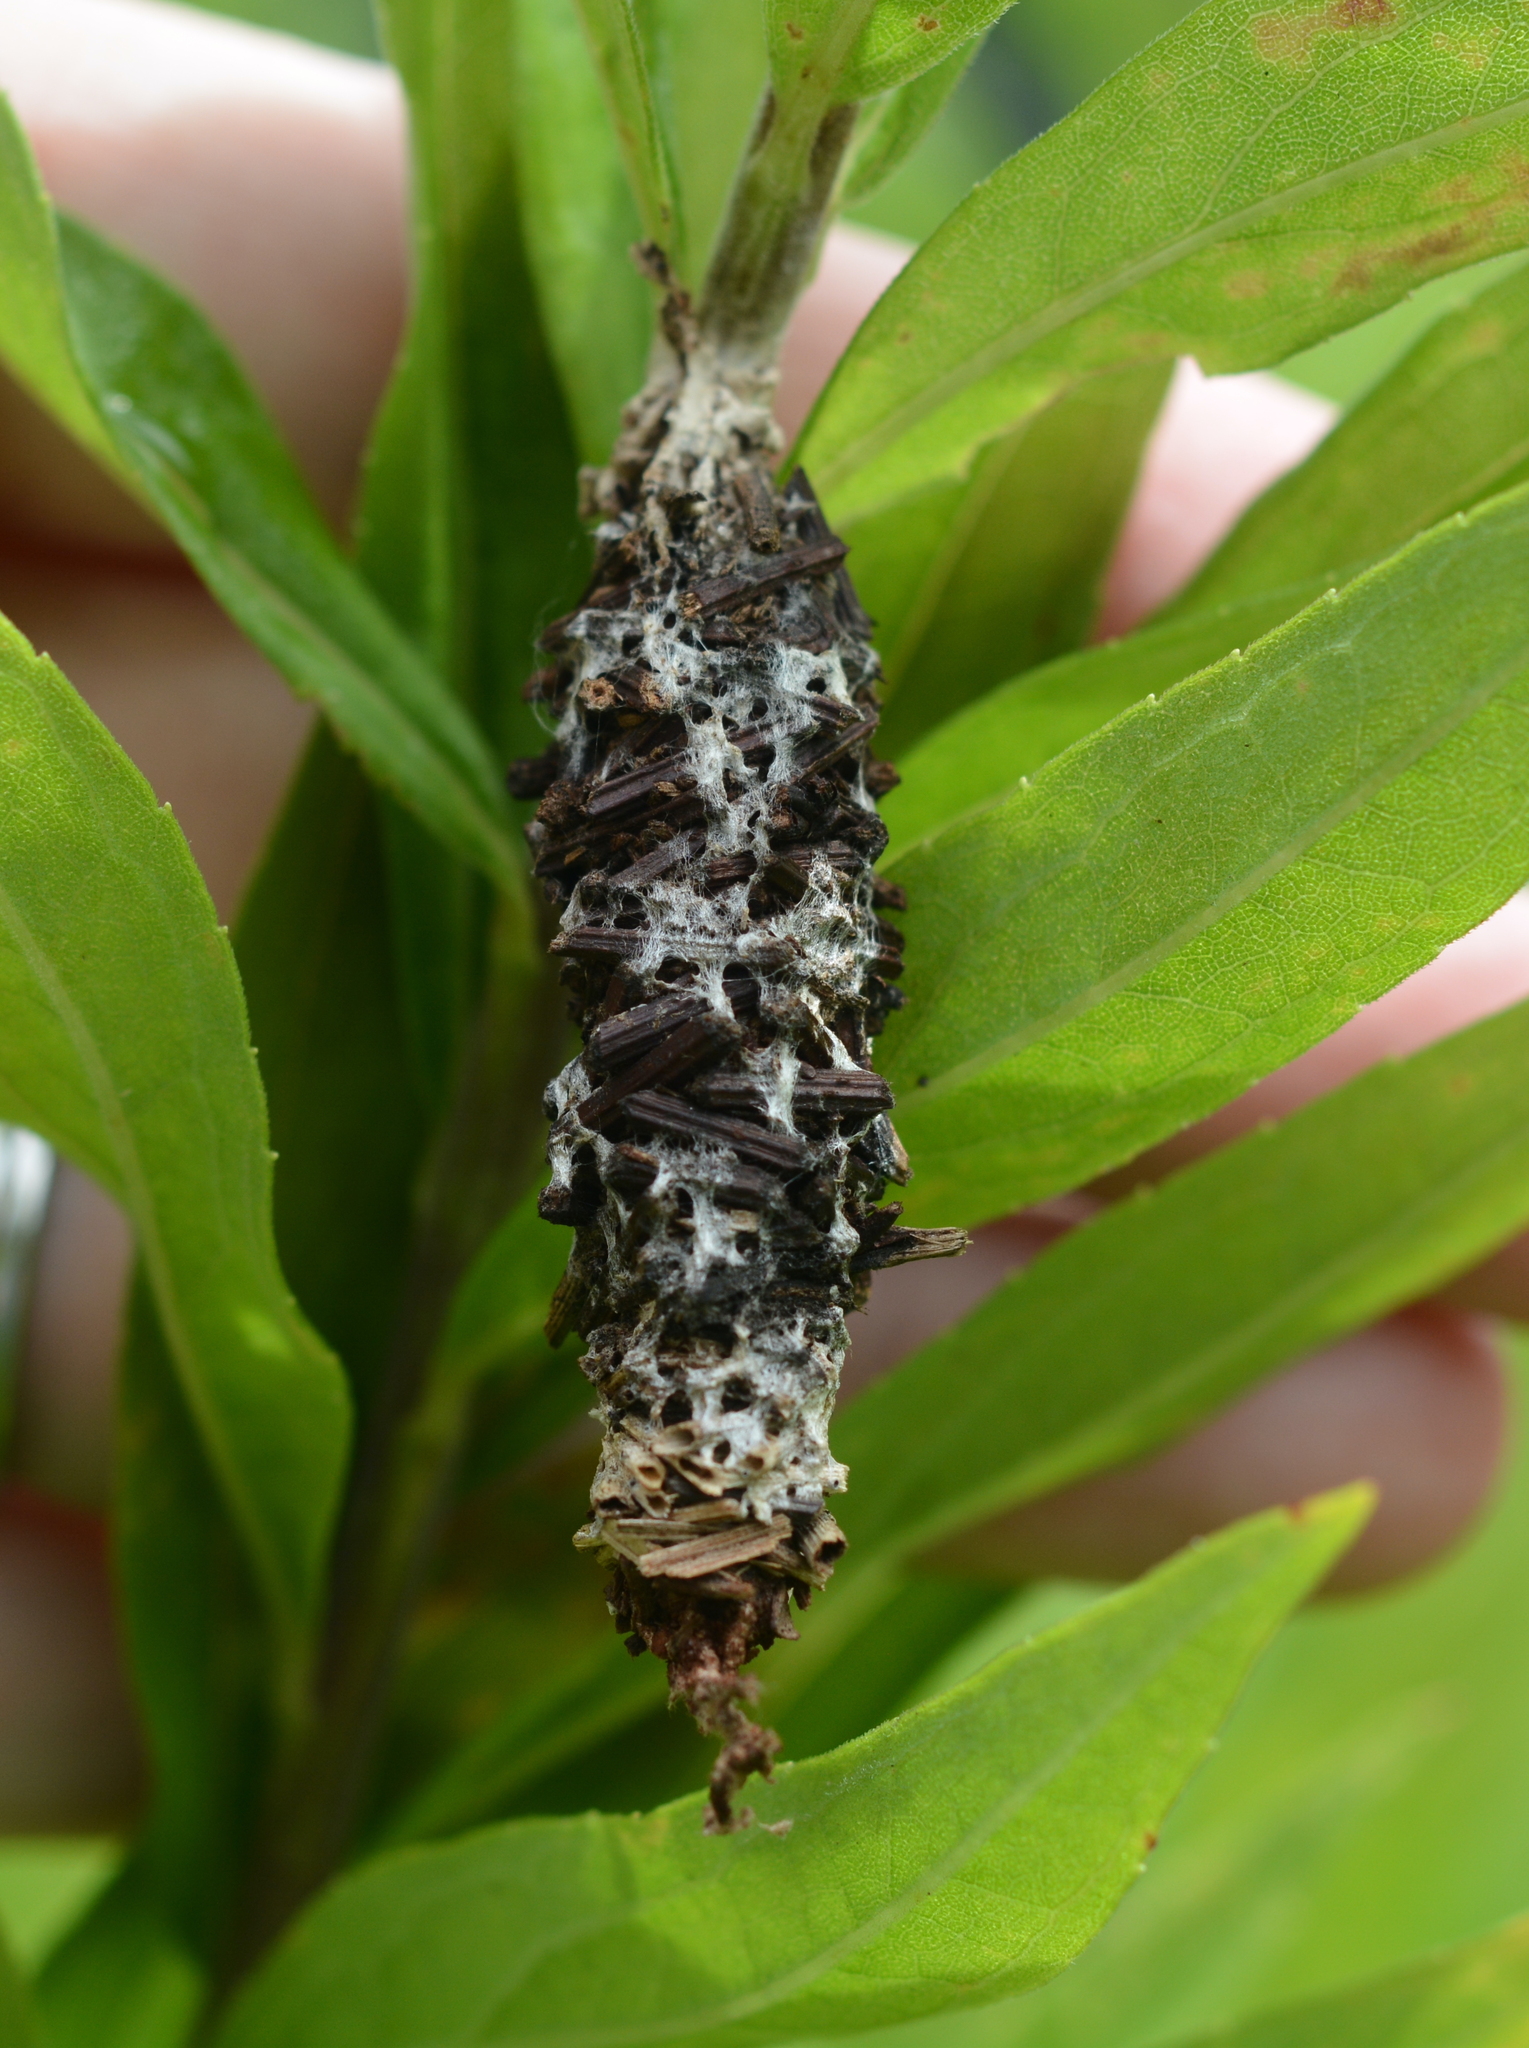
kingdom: Animalia
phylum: Arthropoda
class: Insecta
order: Lepidoptera
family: Psychidae
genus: Oiketicus
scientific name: Oiketicus
